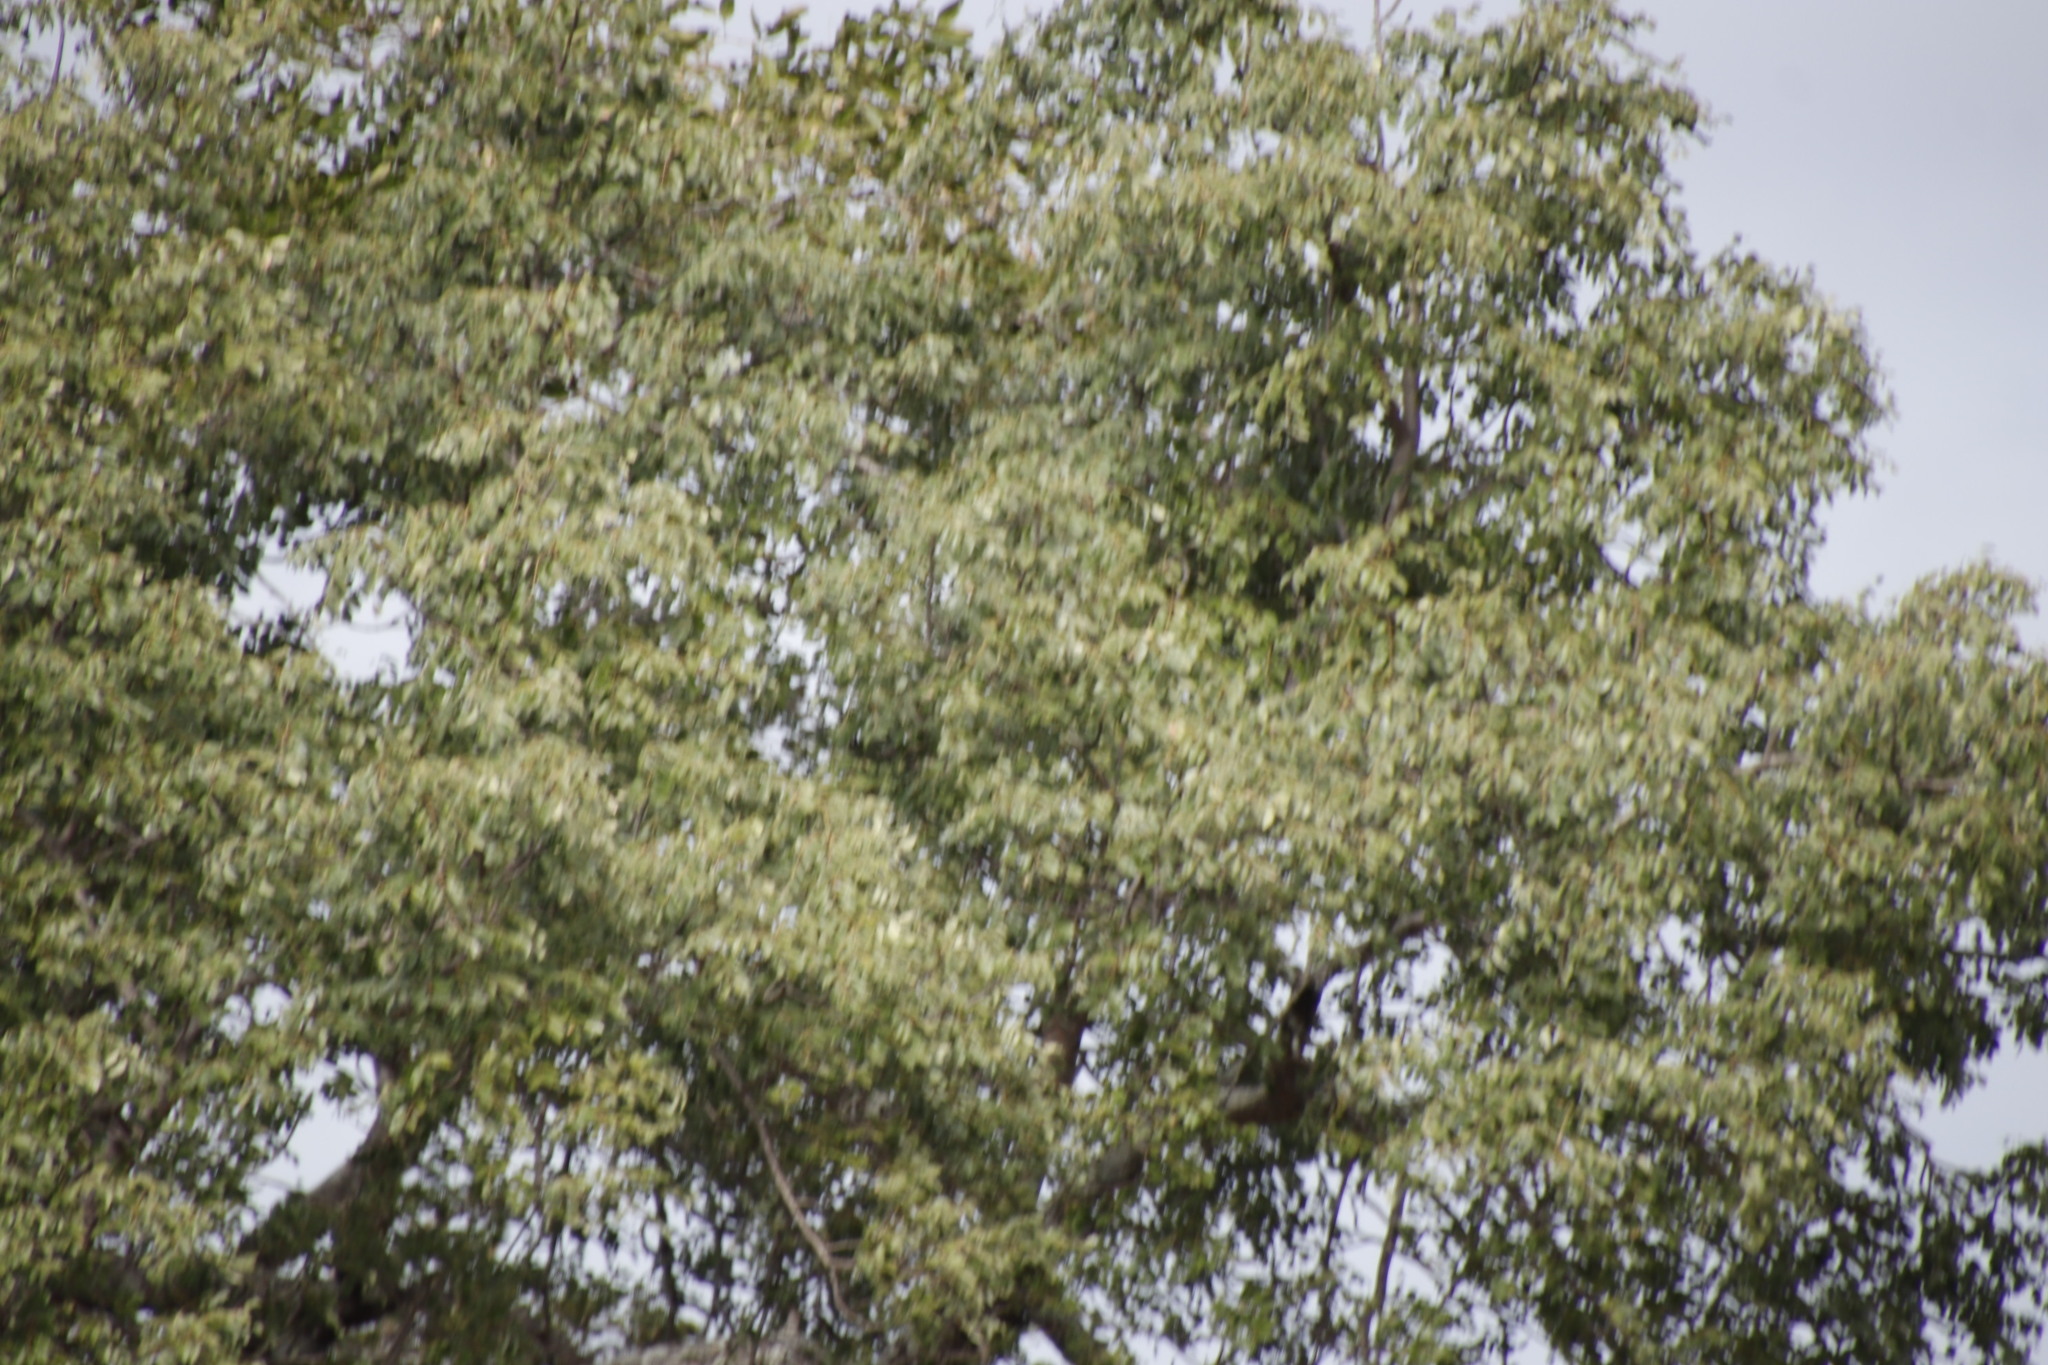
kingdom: Plantae
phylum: Tracheophyta
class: Magnoliopsida
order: Sapindales
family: Anacardiaceae
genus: Sclerocarya
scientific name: Sclerocarya birrea
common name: Marula
